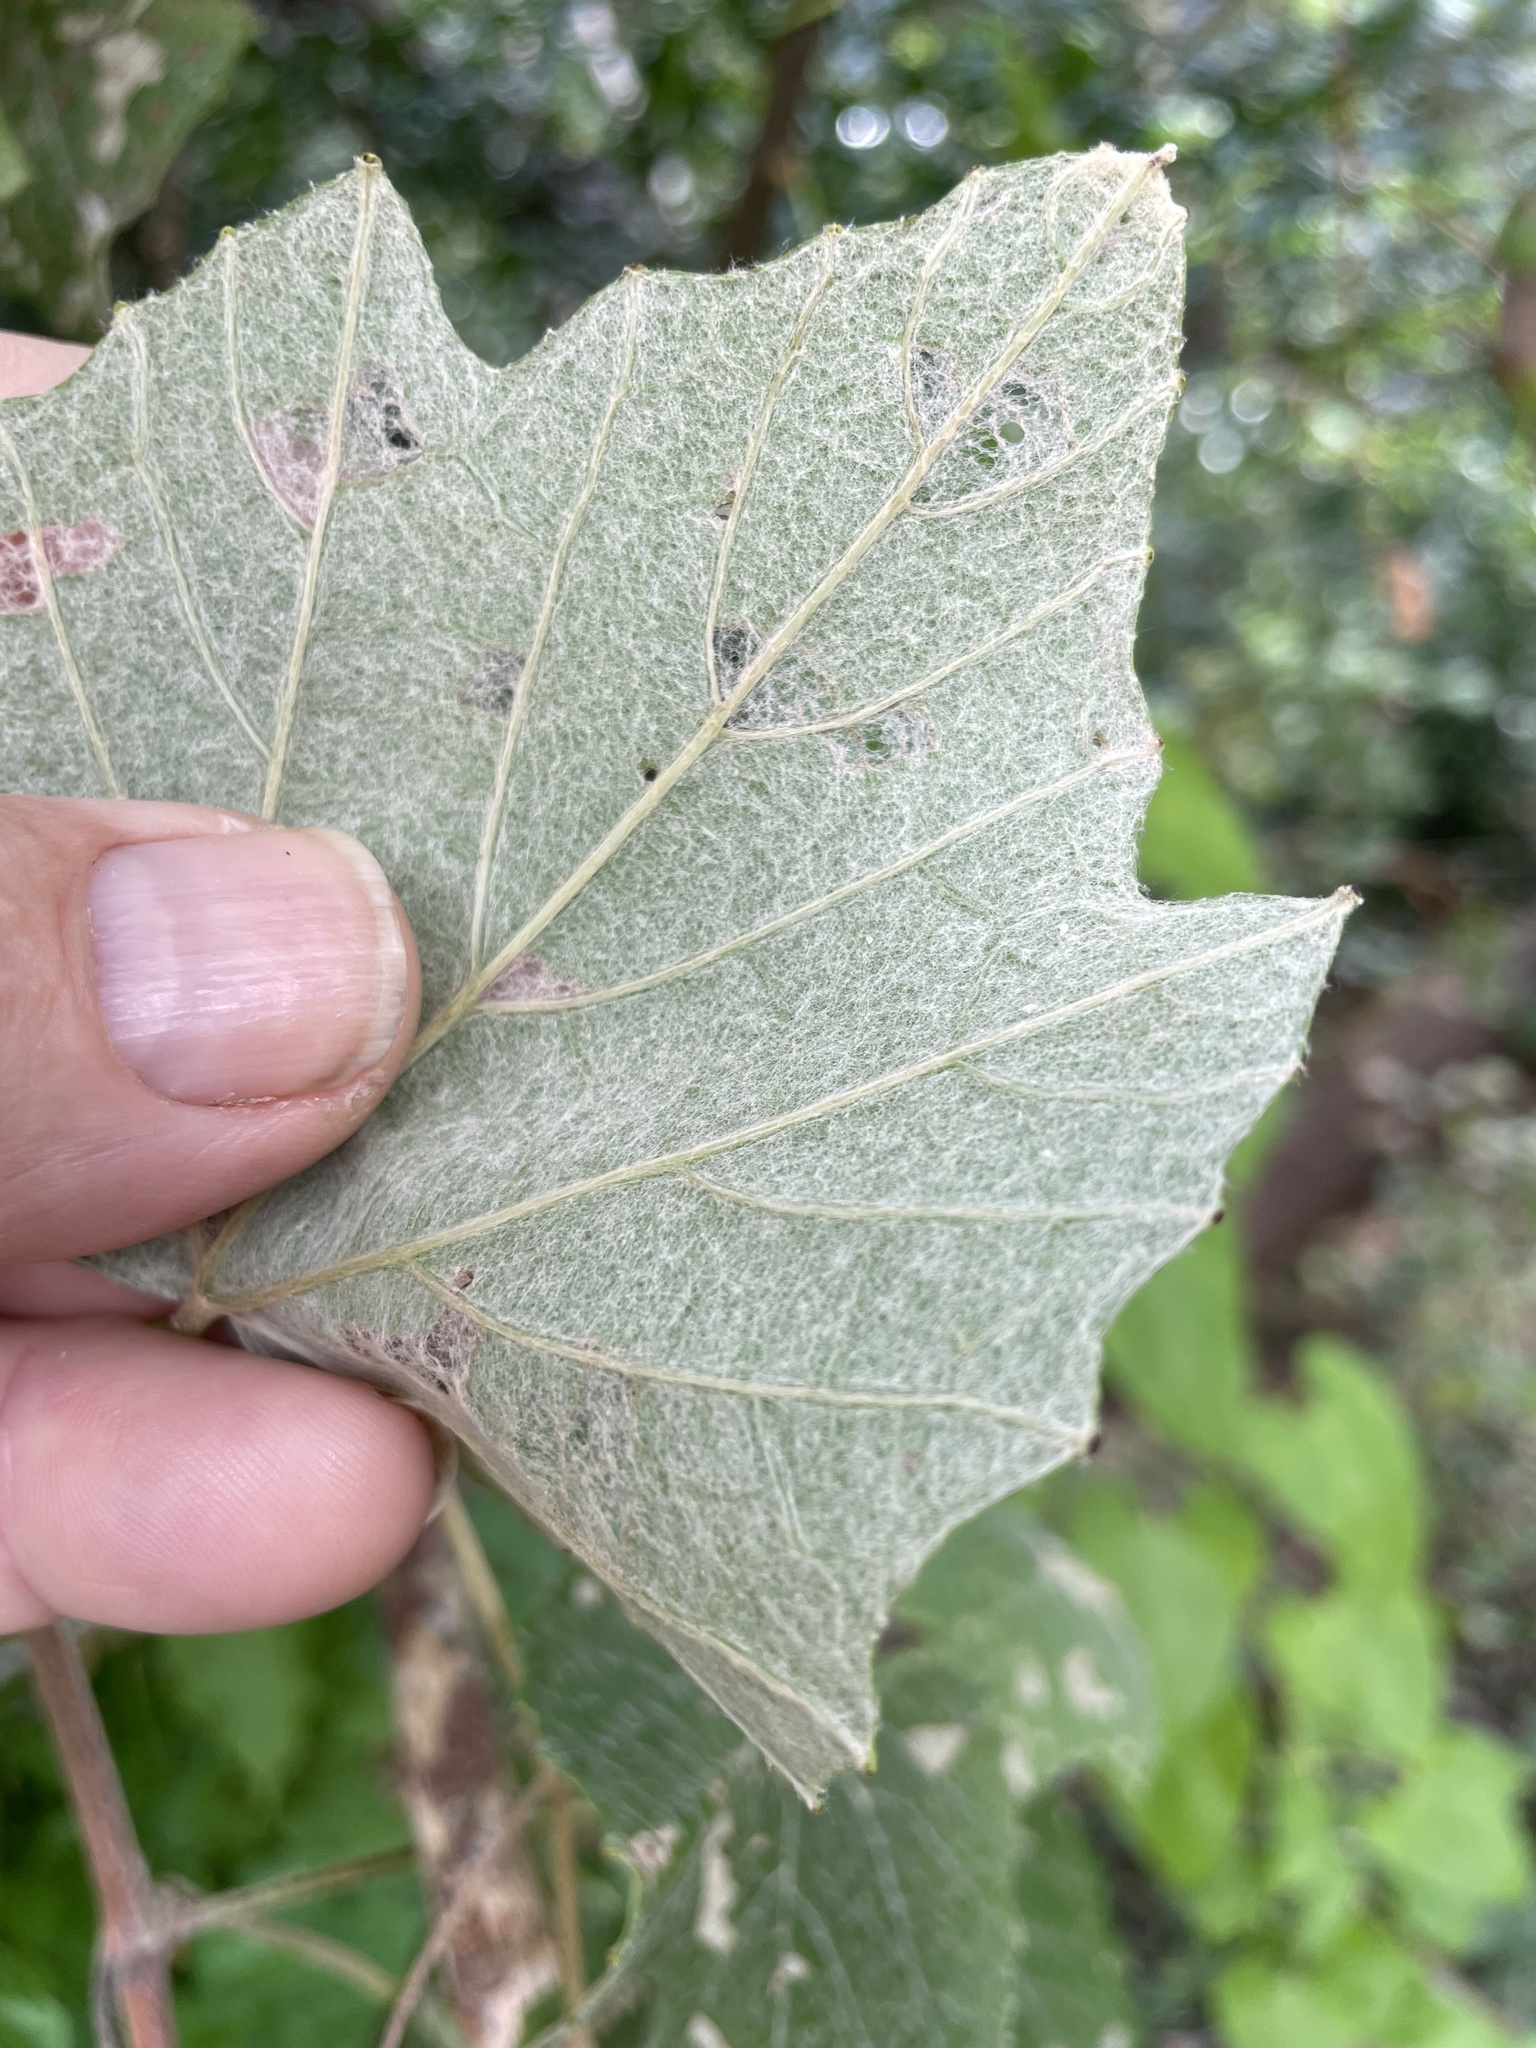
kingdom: Plantae
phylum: Tracheophyta
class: Magnoliopsida
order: Vitales
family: Vitaceae
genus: Vitis
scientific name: Vitis mustangensis
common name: Mustang grape
